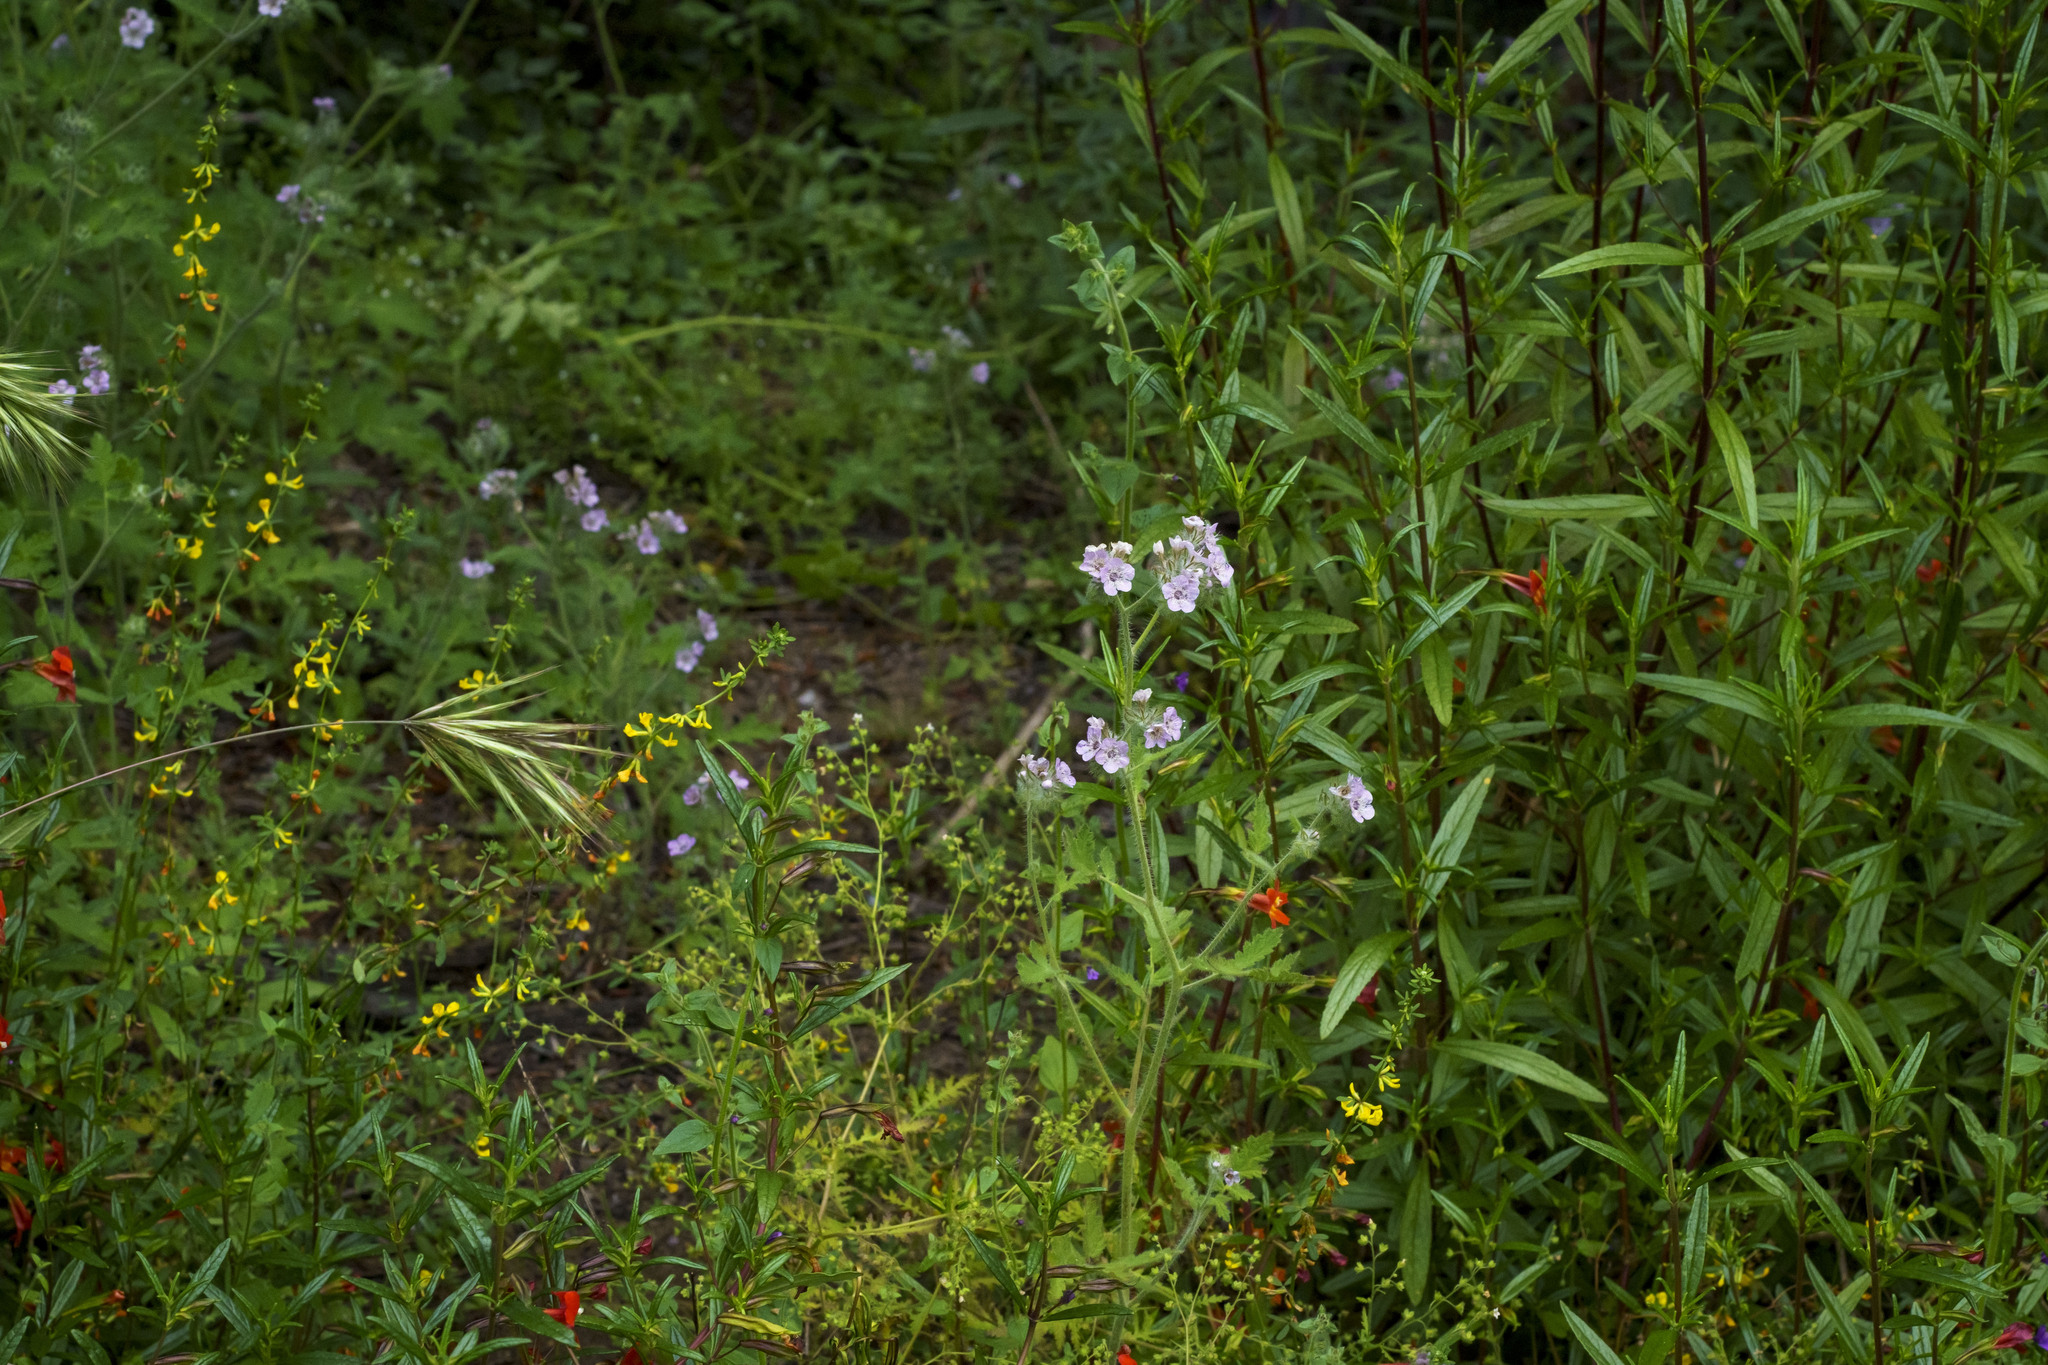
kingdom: Plantae
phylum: Tracheophyta
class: Magnoliopsida
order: Boraginales
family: Hydrophyllaceae
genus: Phacelia
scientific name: Phacelia cicutaria
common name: Caterpillar phacelia
